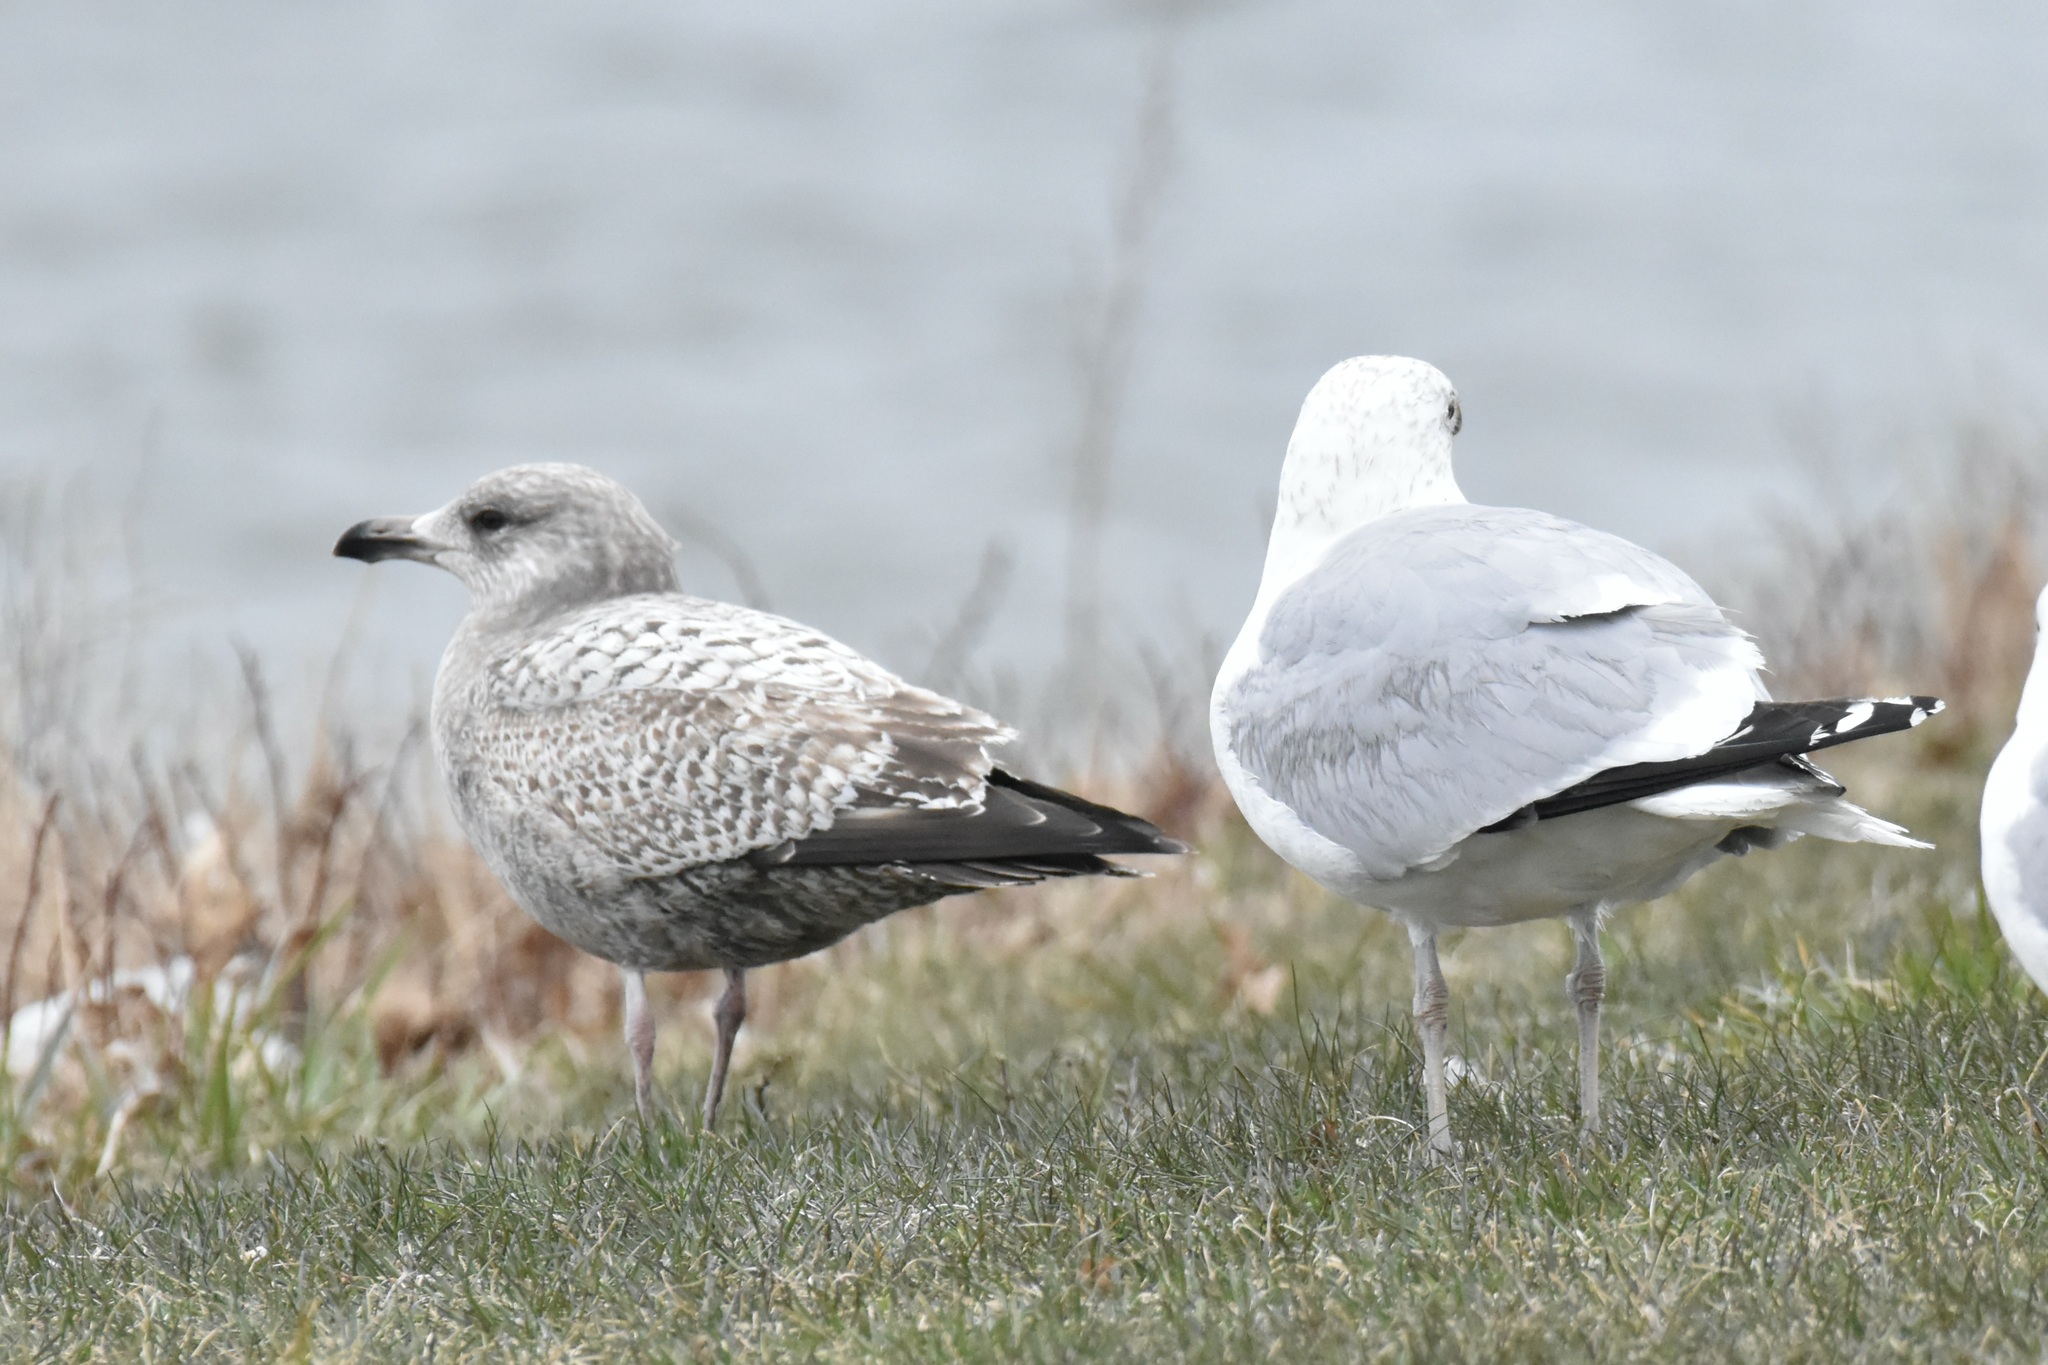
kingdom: Animalia
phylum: Chordata
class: Aves
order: Charadriiformes
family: Laridae
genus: Larus
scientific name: Larus argentatus
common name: Herring gull
